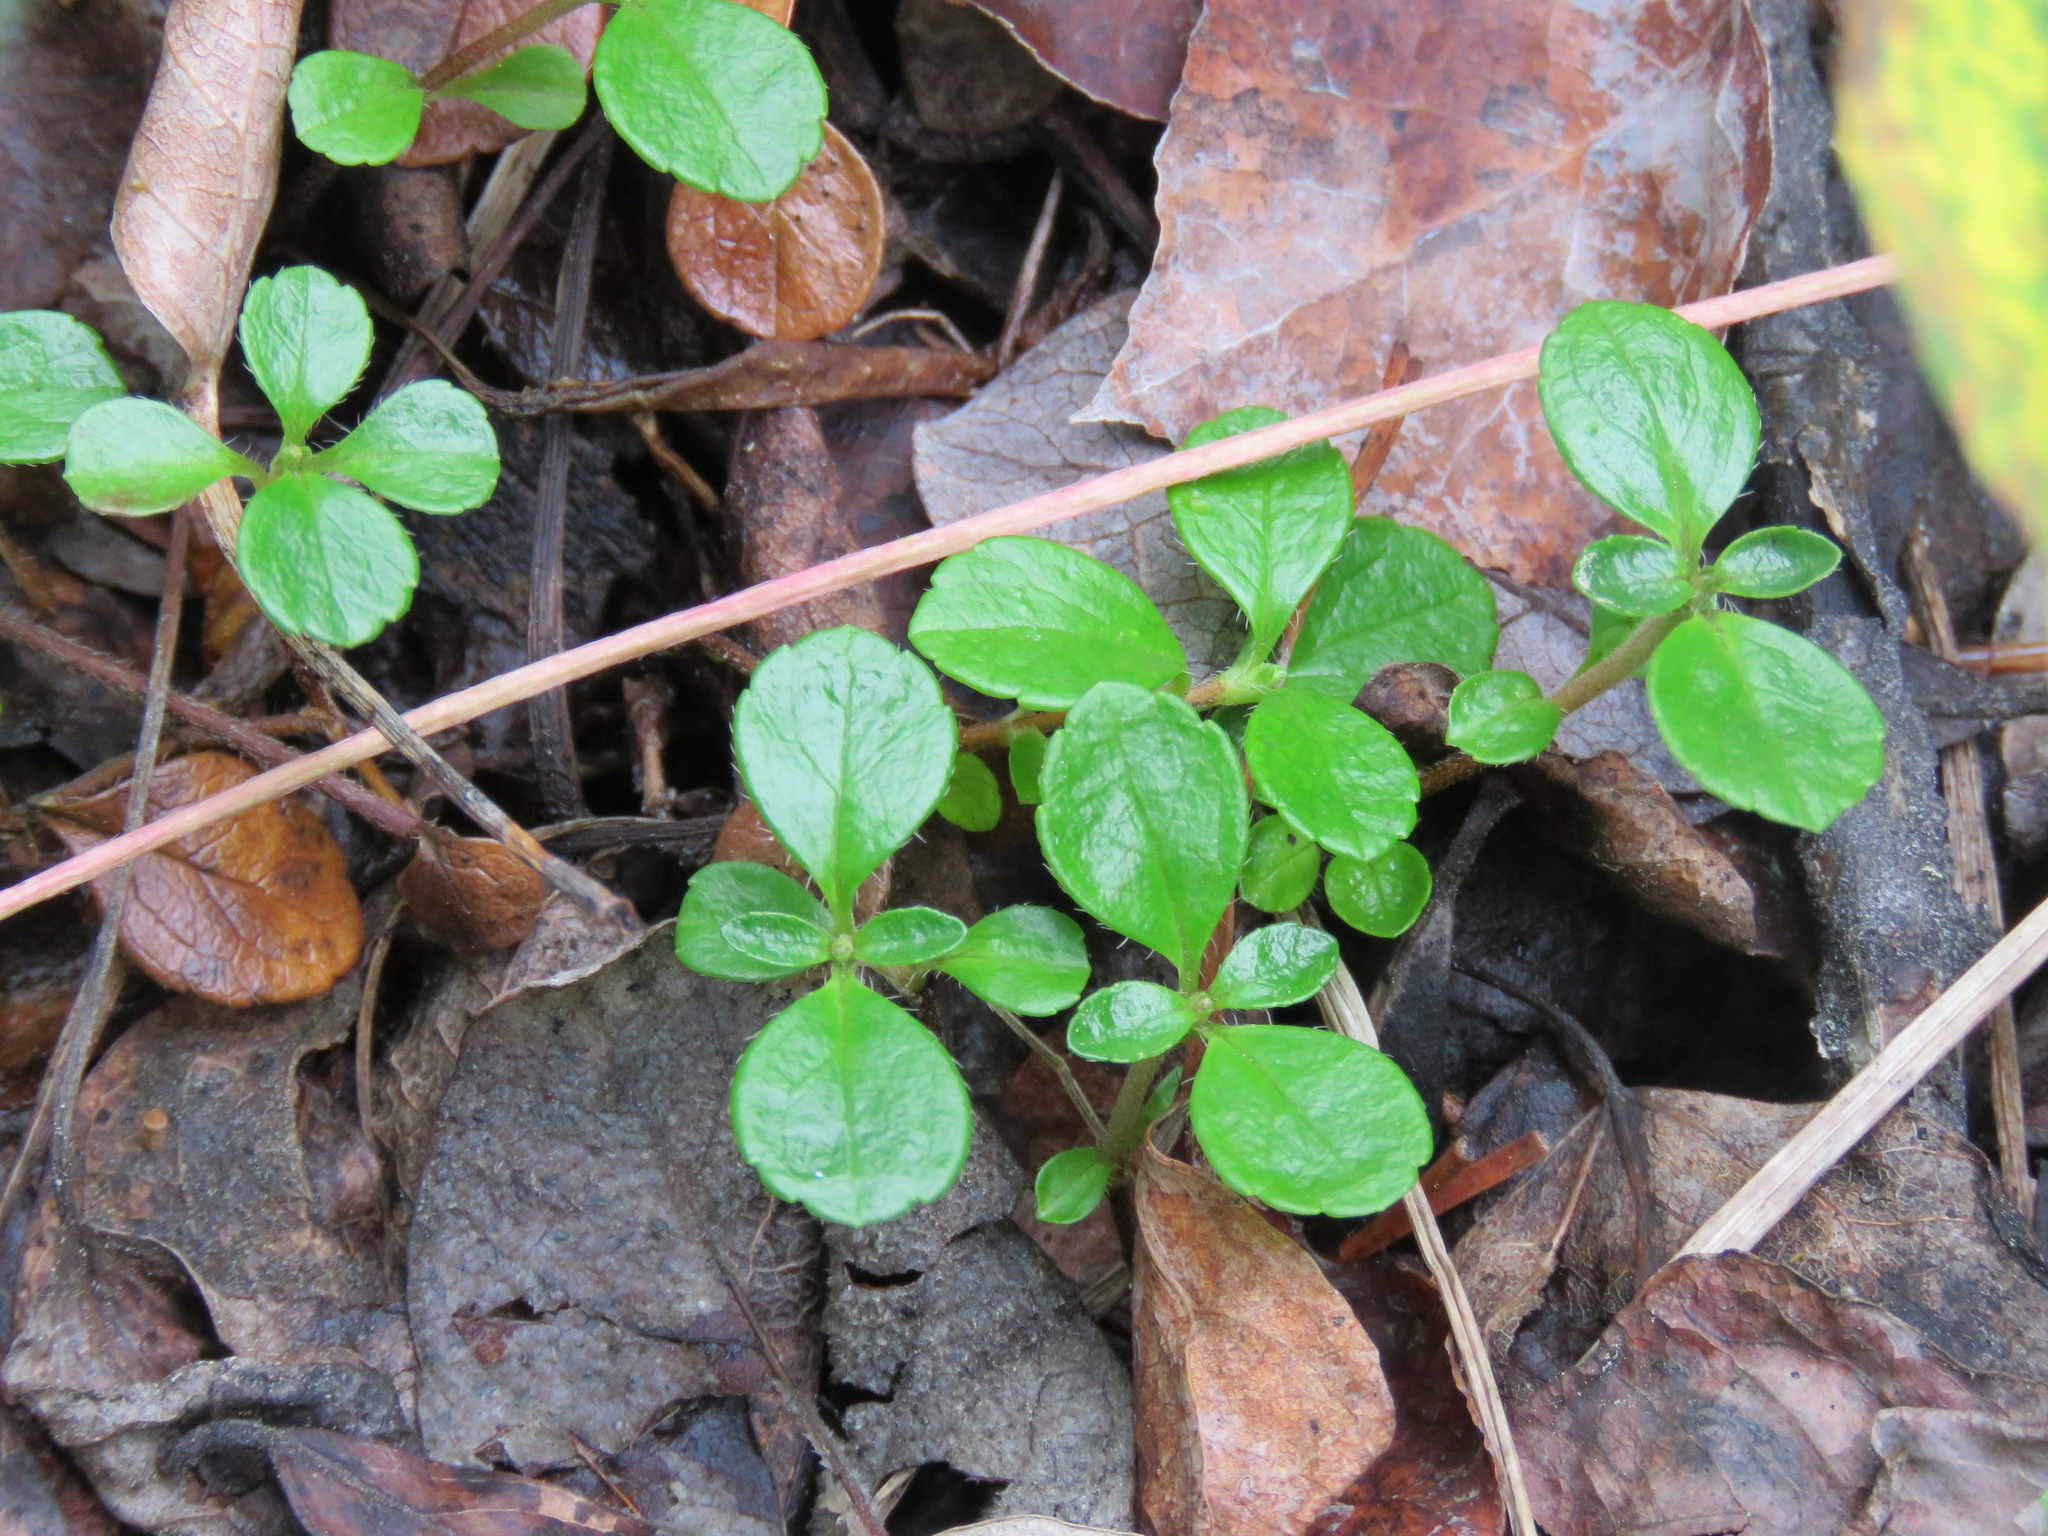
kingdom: Plantae
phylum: Tracheophyta
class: Magnoliopsida
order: Dipsacales
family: Caprifoliaceae
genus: Linnaea
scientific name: Linnaea borealis
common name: Twinflower
